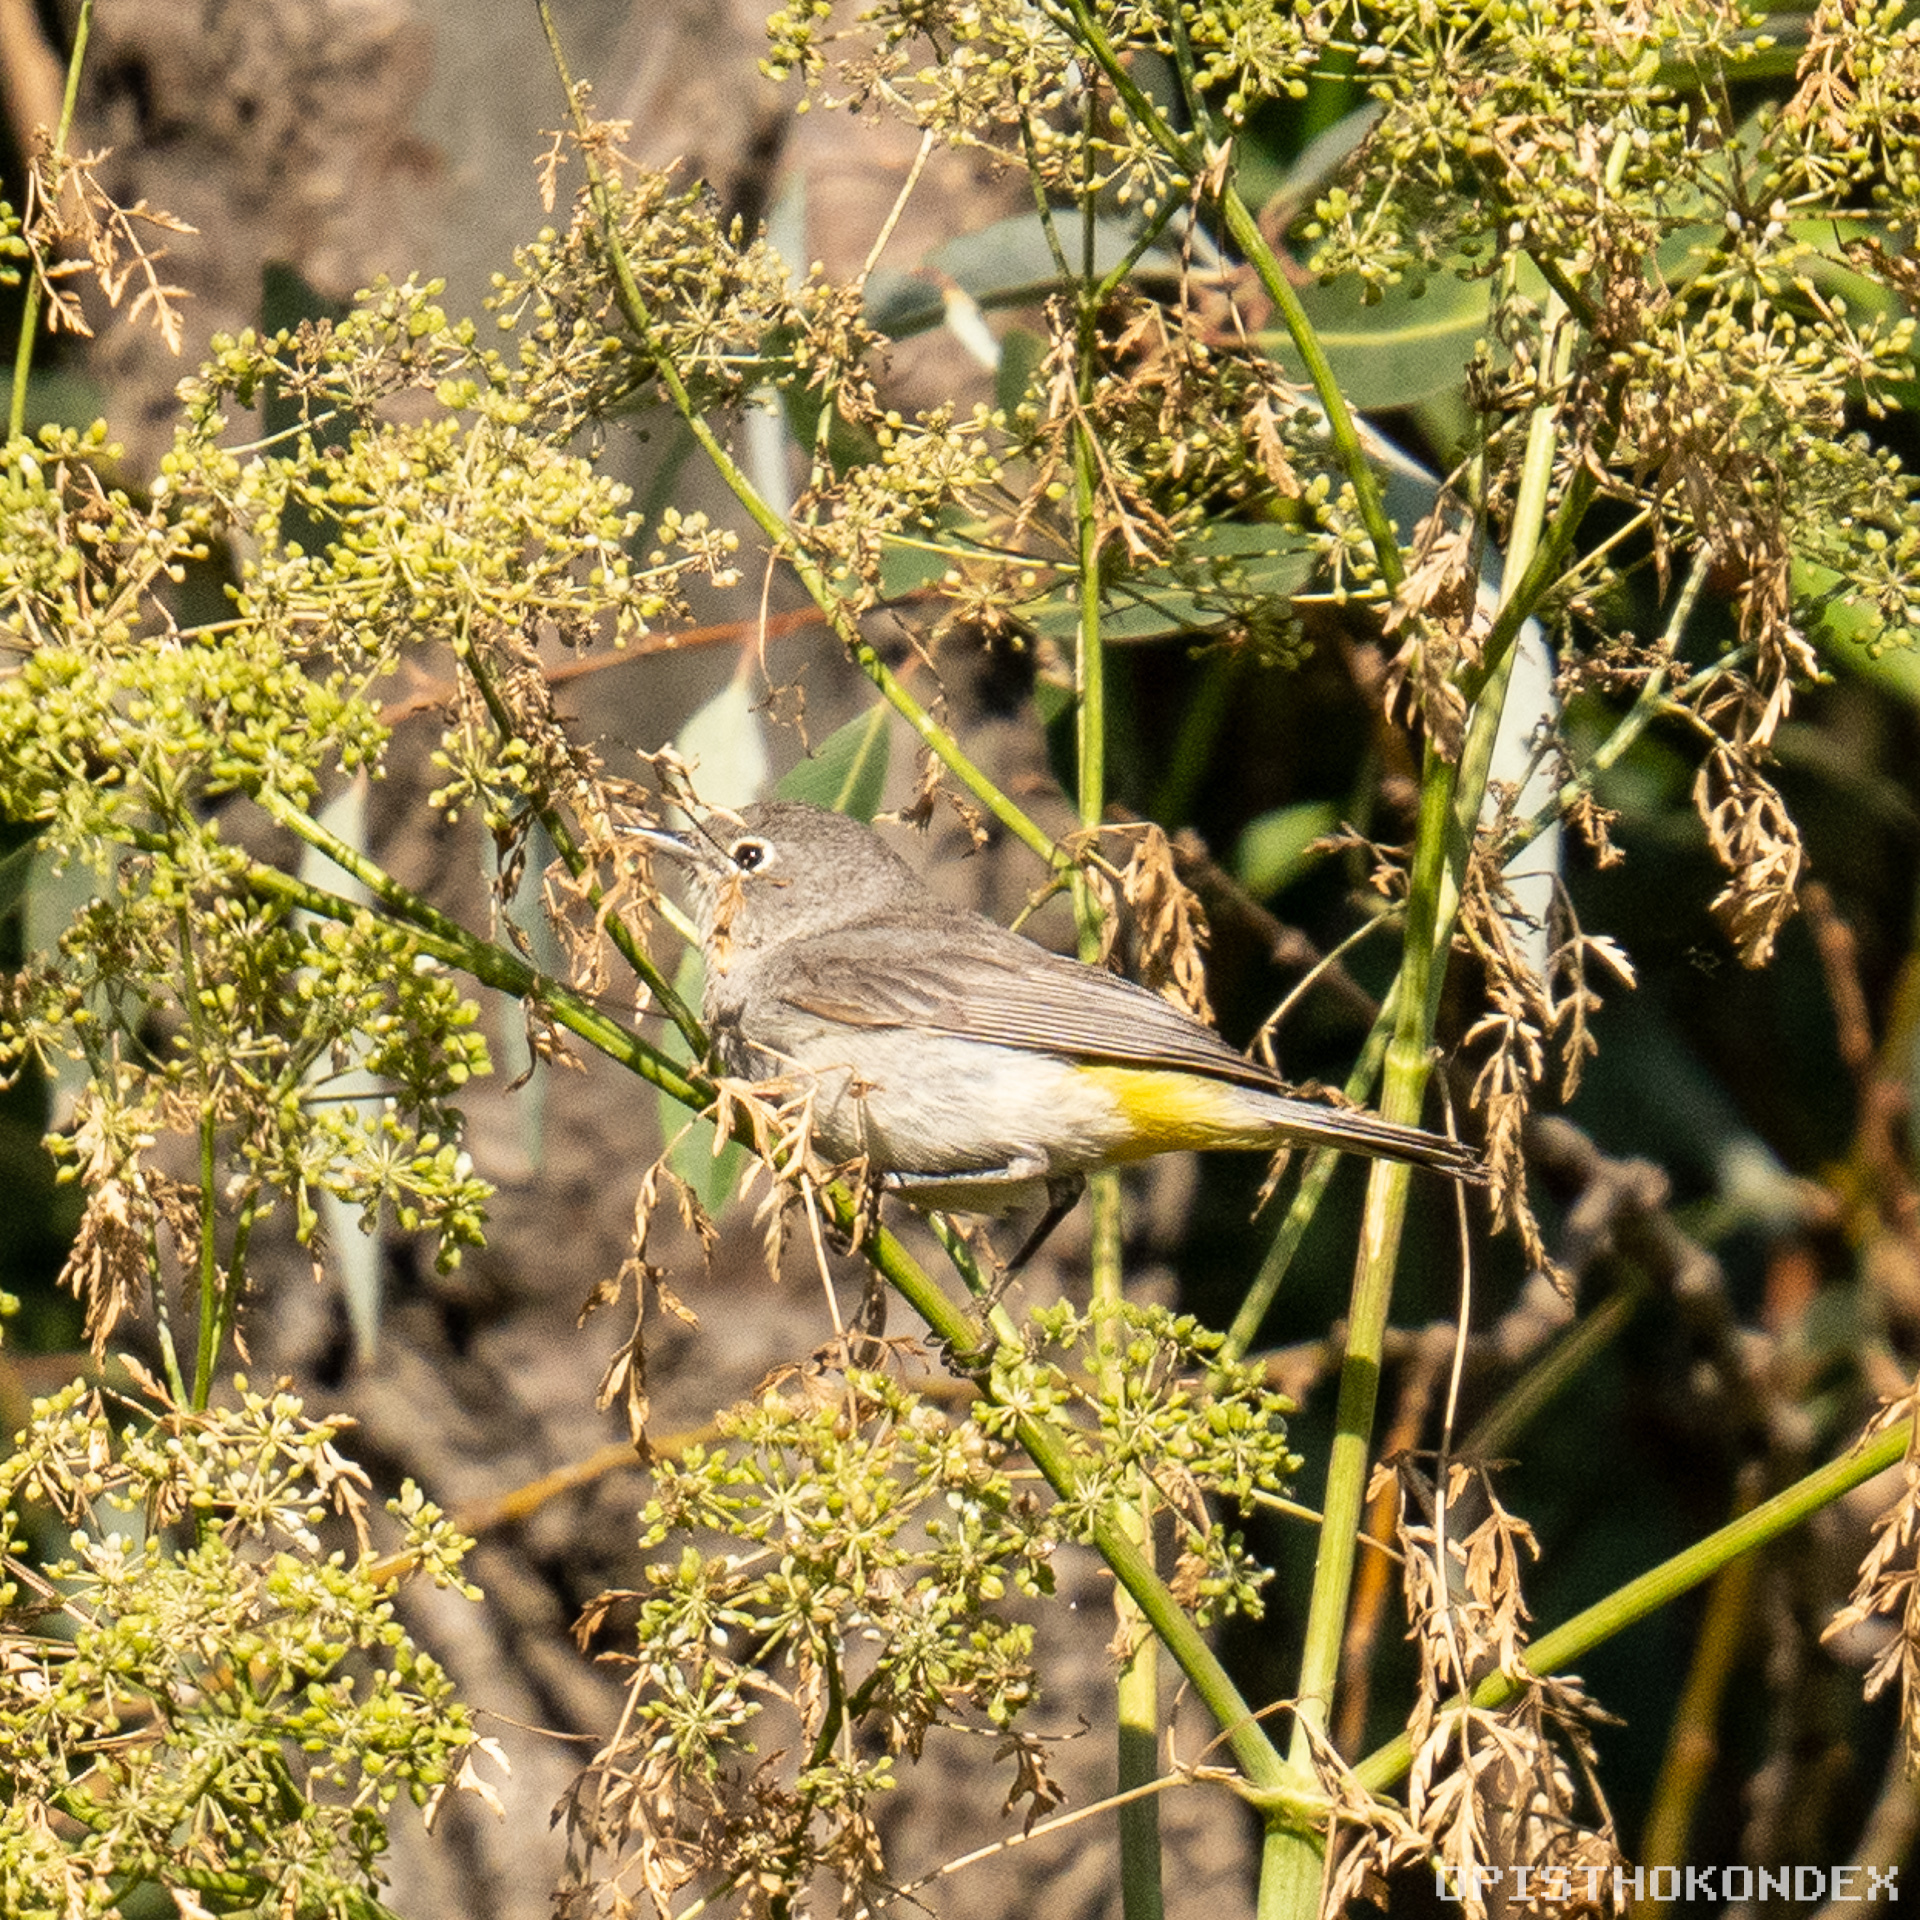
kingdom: Animalia
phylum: Chordata
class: Aves
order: Passeriformes
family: Parulidae
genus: Leiothlypis
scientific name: Leiothlypis virginiae
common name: Virginia's warbler
